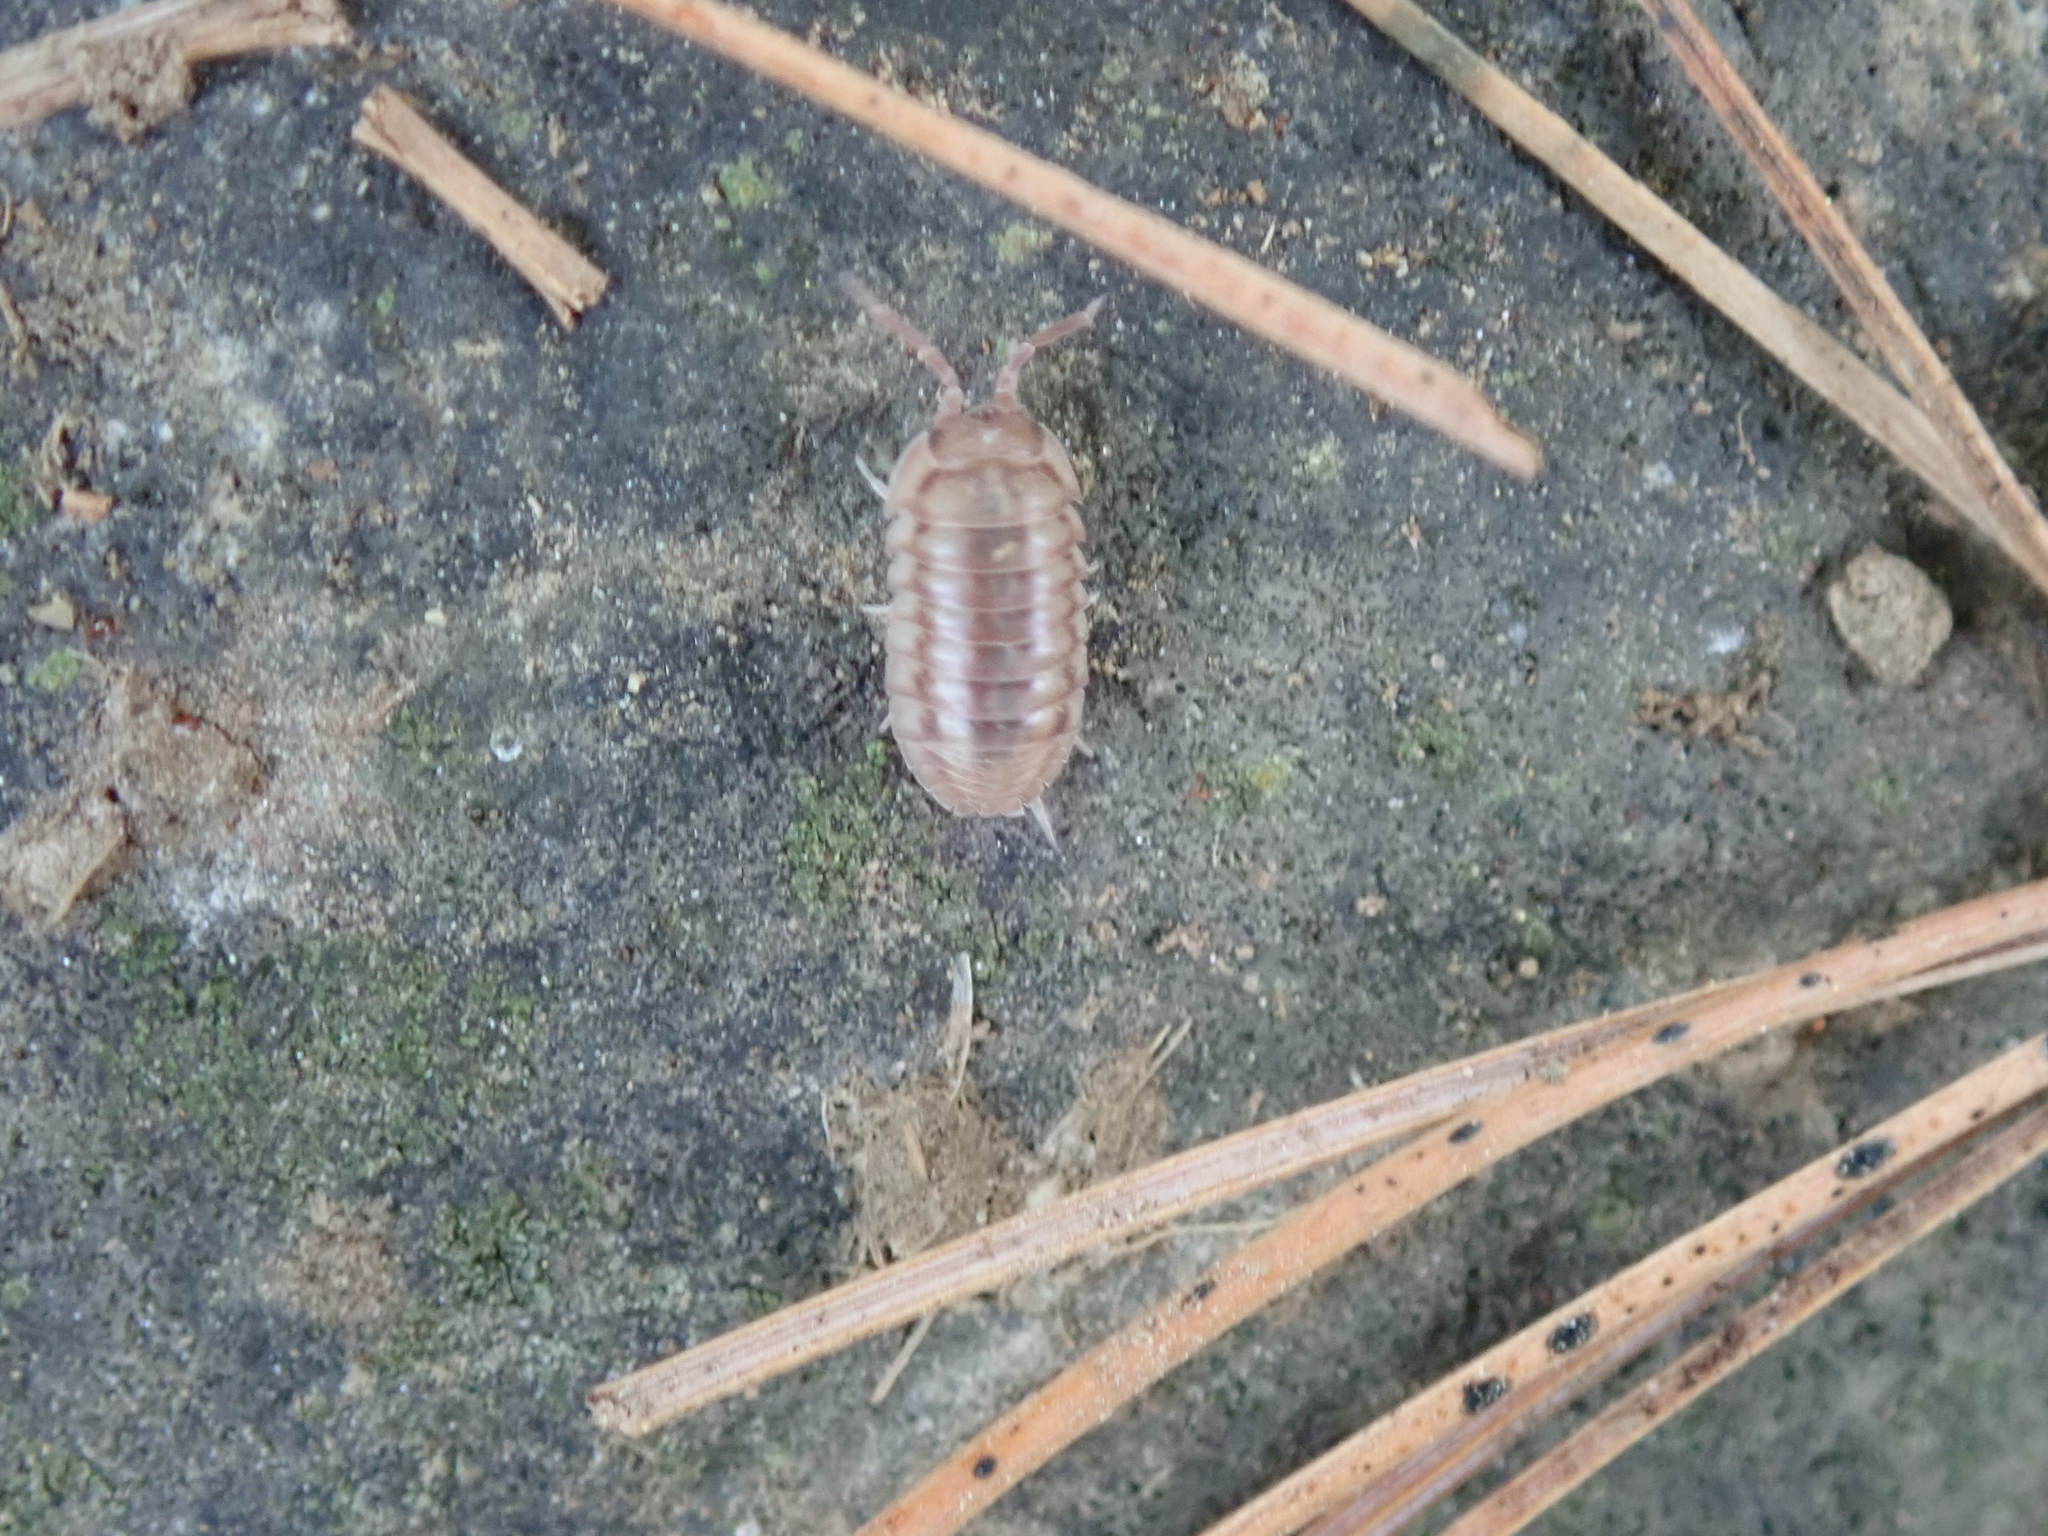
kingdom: Animalia
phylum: Arthropoda
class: Malacostraca
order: Isopoda
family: Armadillidiidae
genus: Armadillidium
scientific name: Armadillidium nasatum
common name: Isopod
